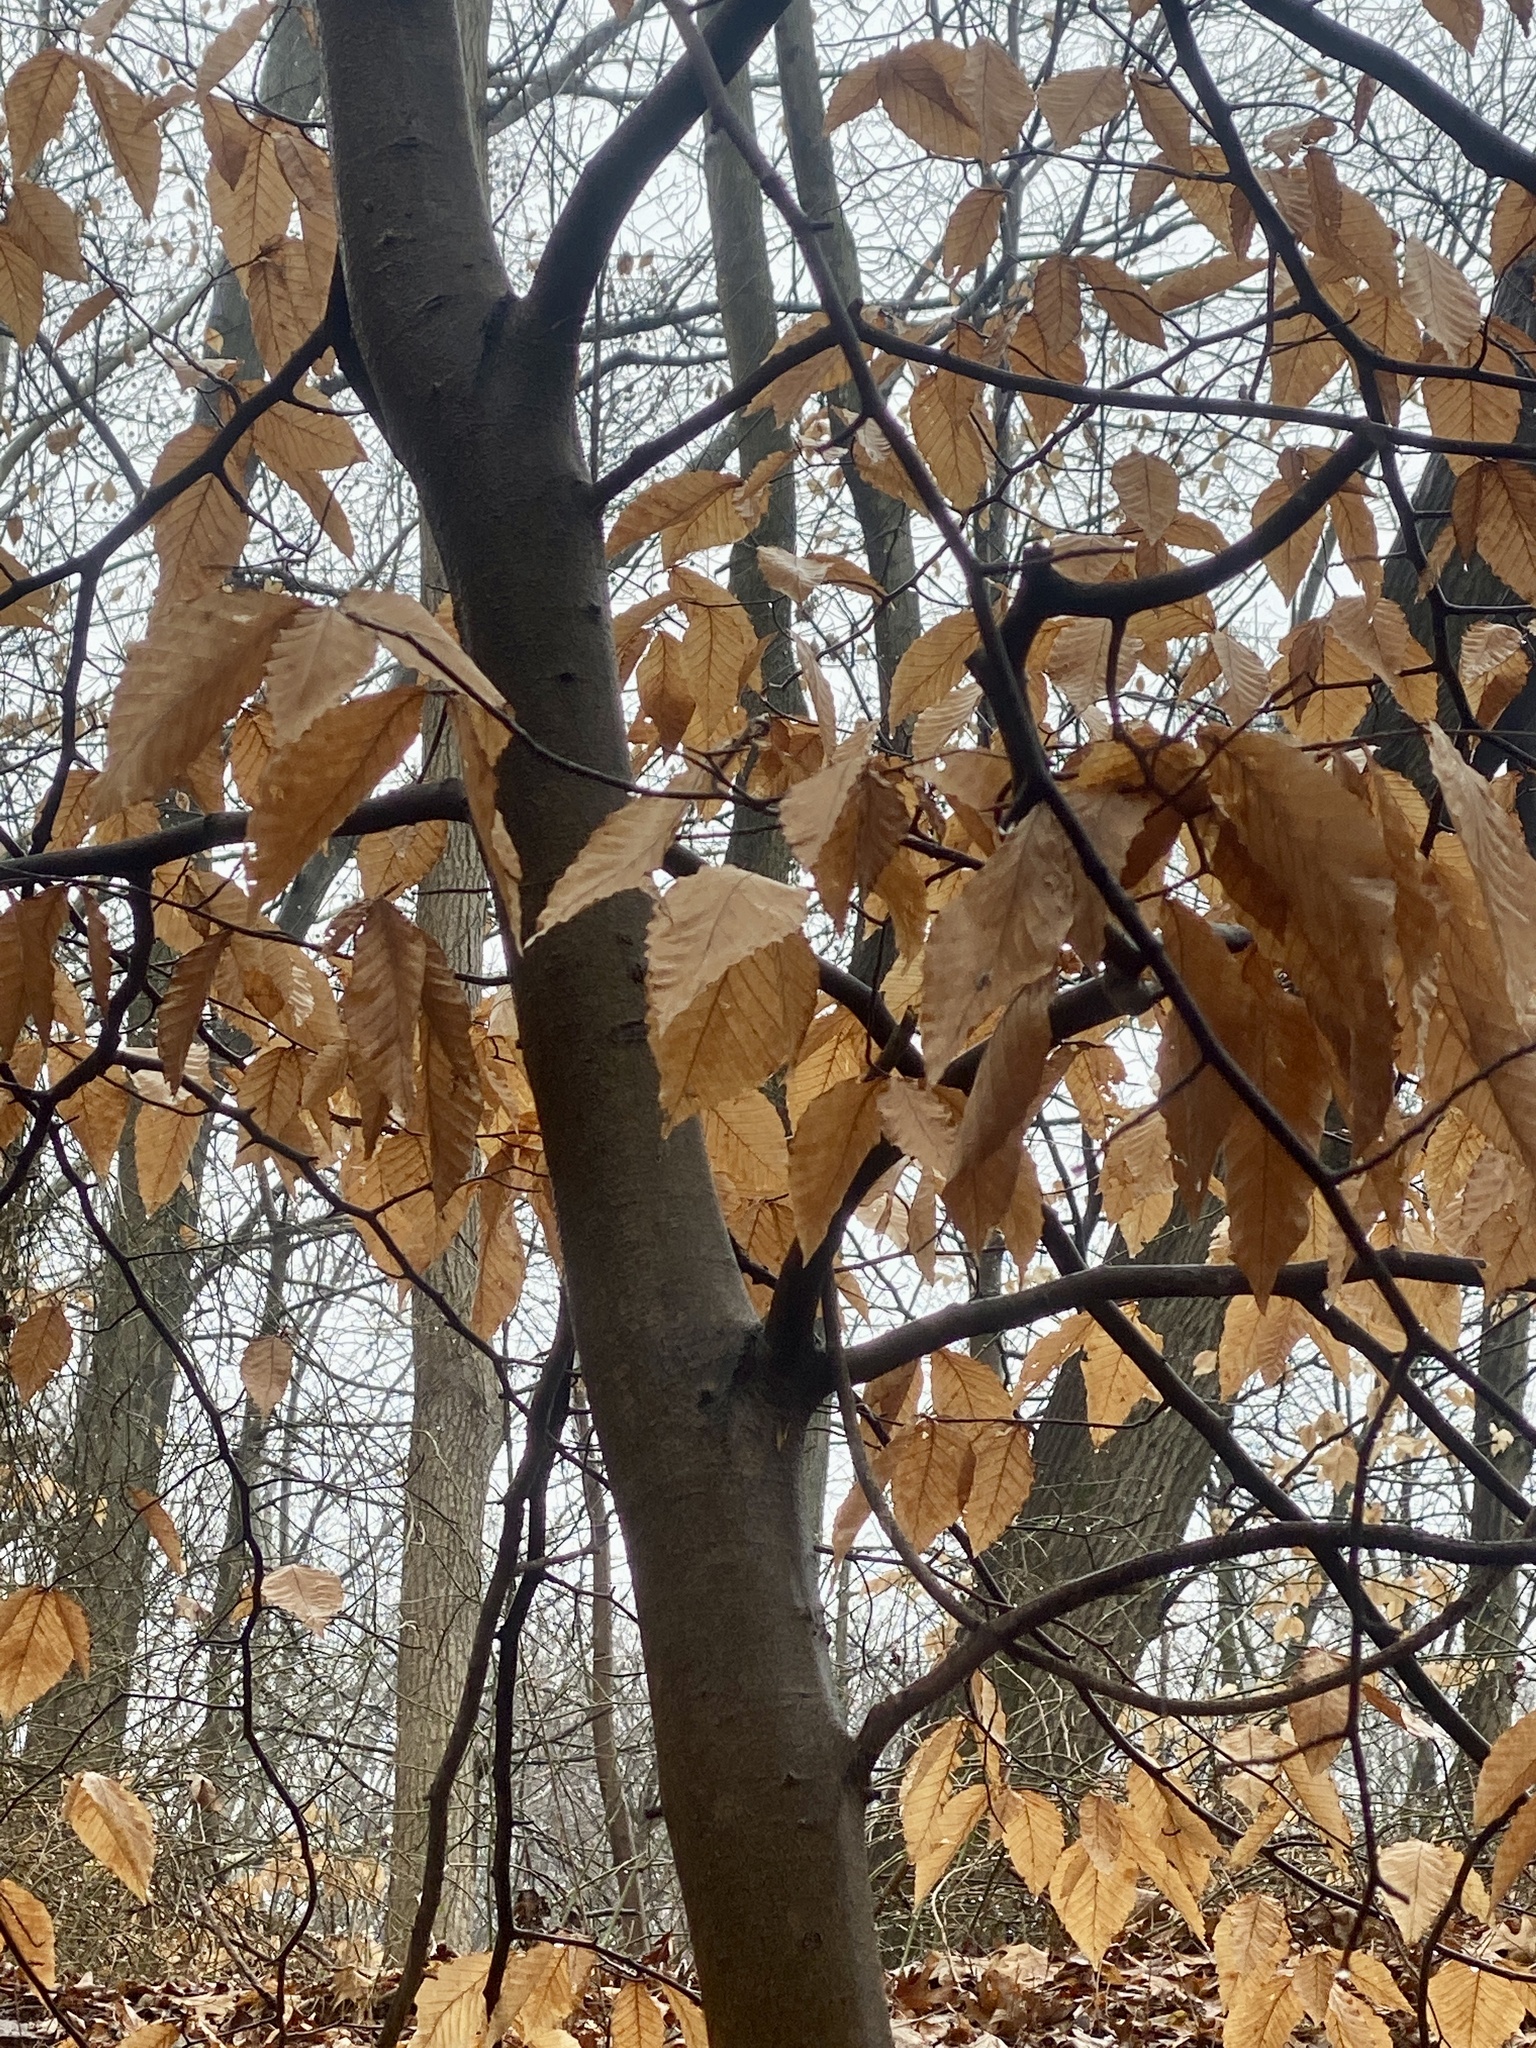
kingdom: Plantae
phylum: Tracheophyta
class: Magnoliopsida
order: Fagales
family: Fagaceae
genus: Fagus
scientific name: Fagus grandifolia
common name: American beech
